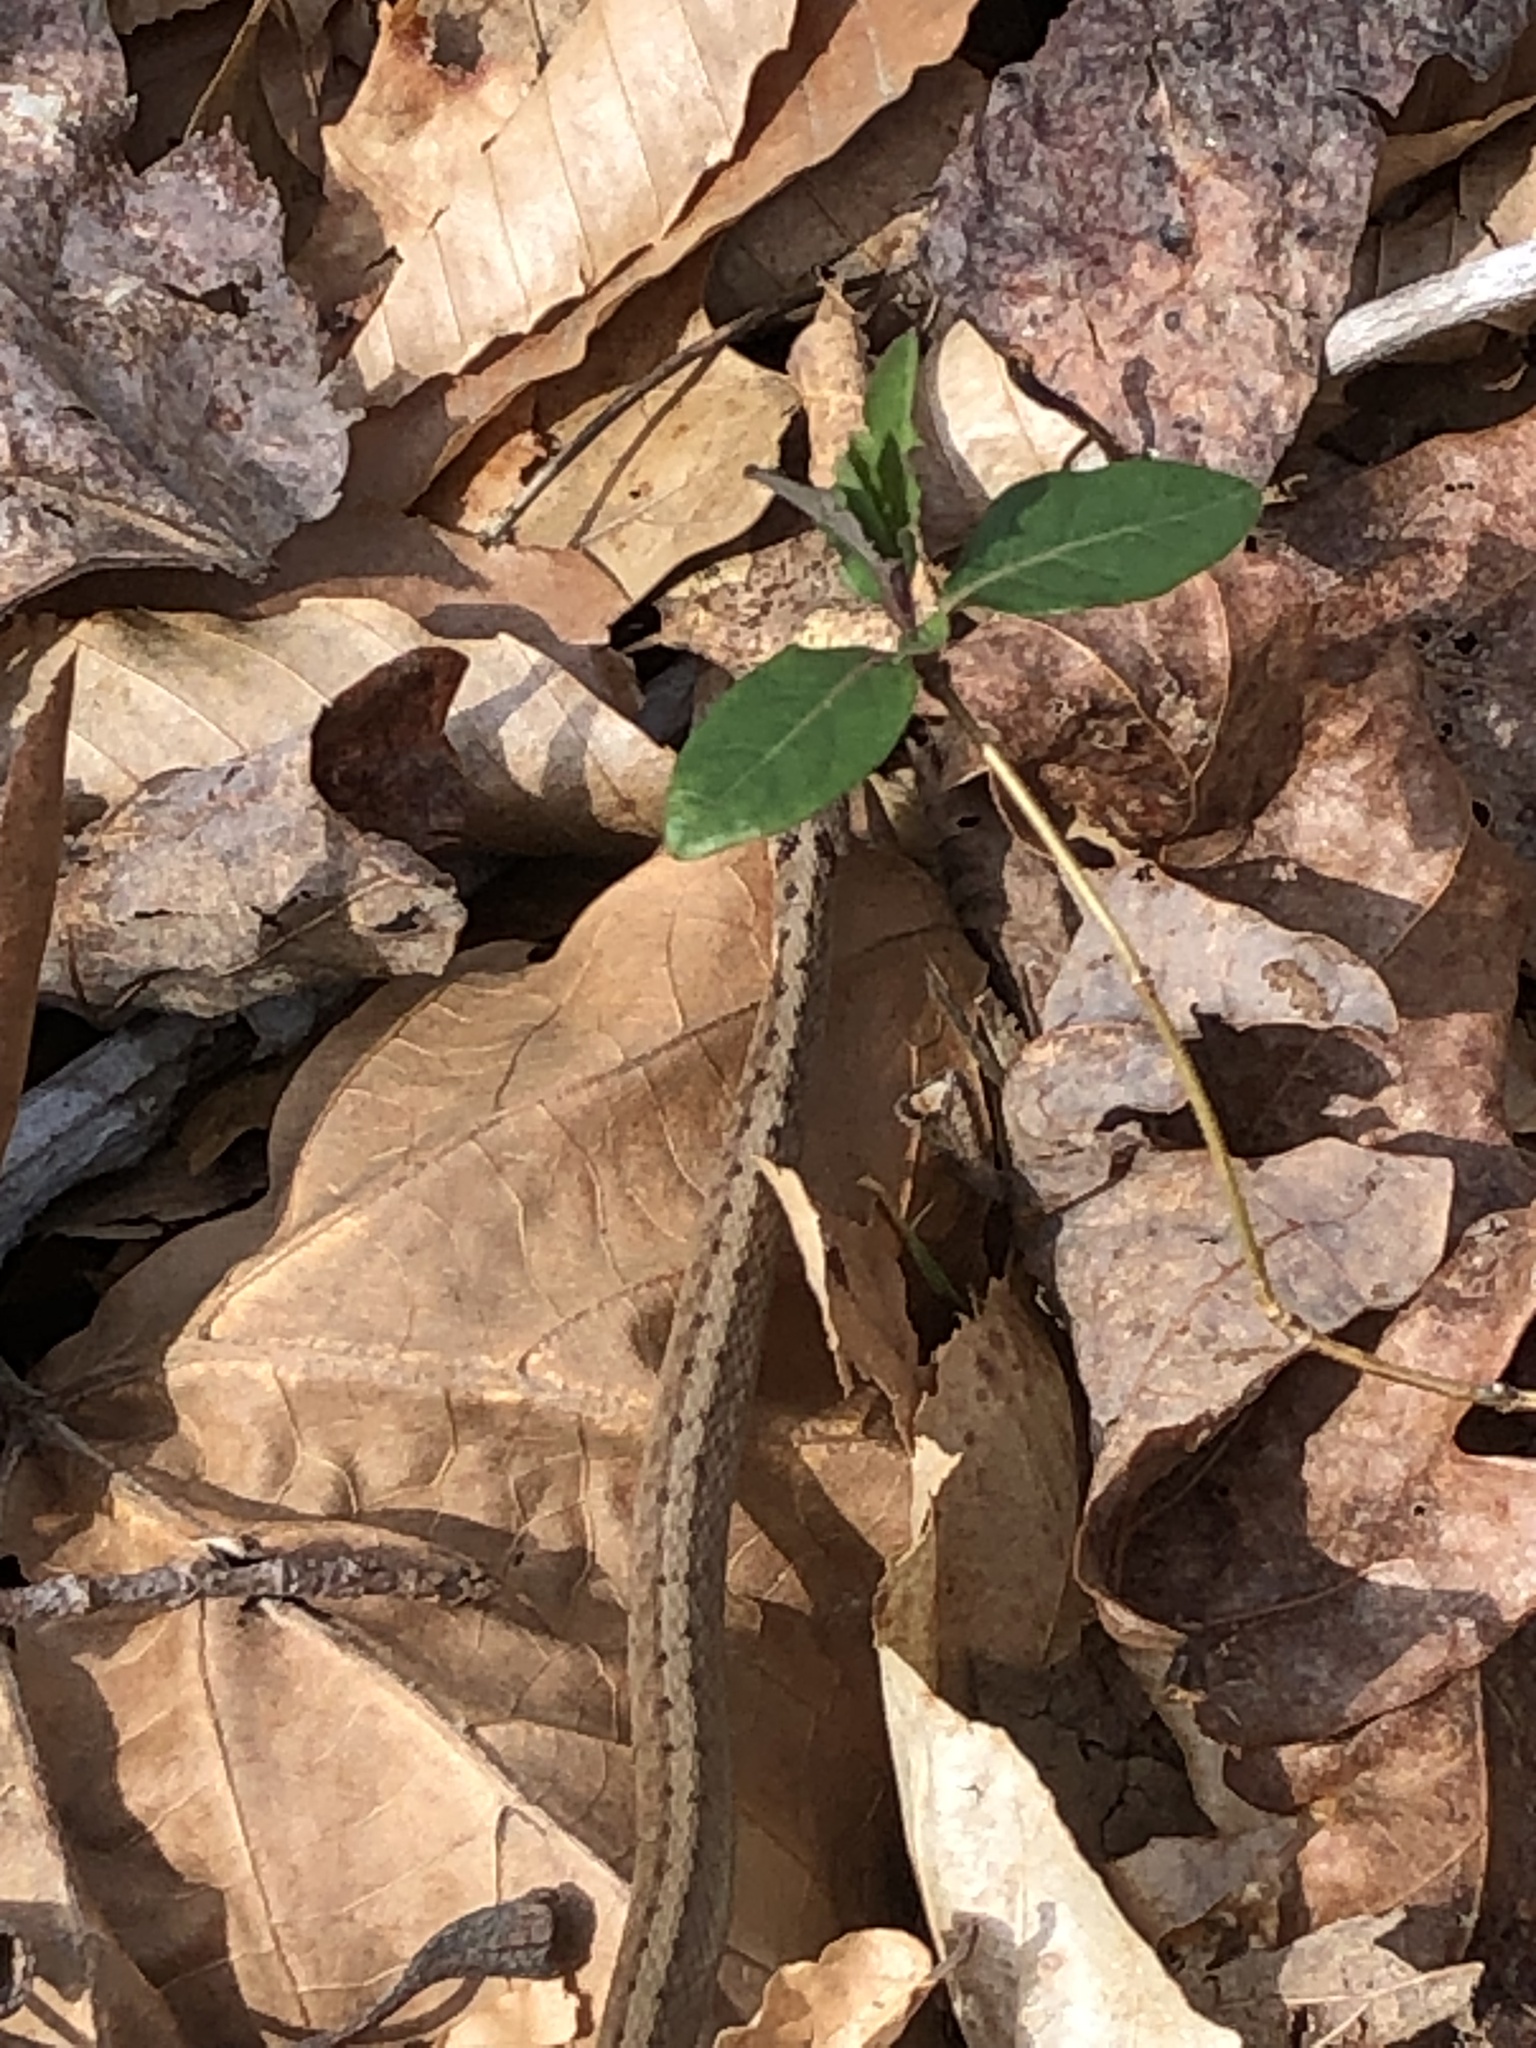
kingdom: Animalia
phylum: Chordata
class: Squamata
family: Colubridae
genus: Storeria
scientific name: Storeria dekayi
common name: (dekay’s) brown snake
